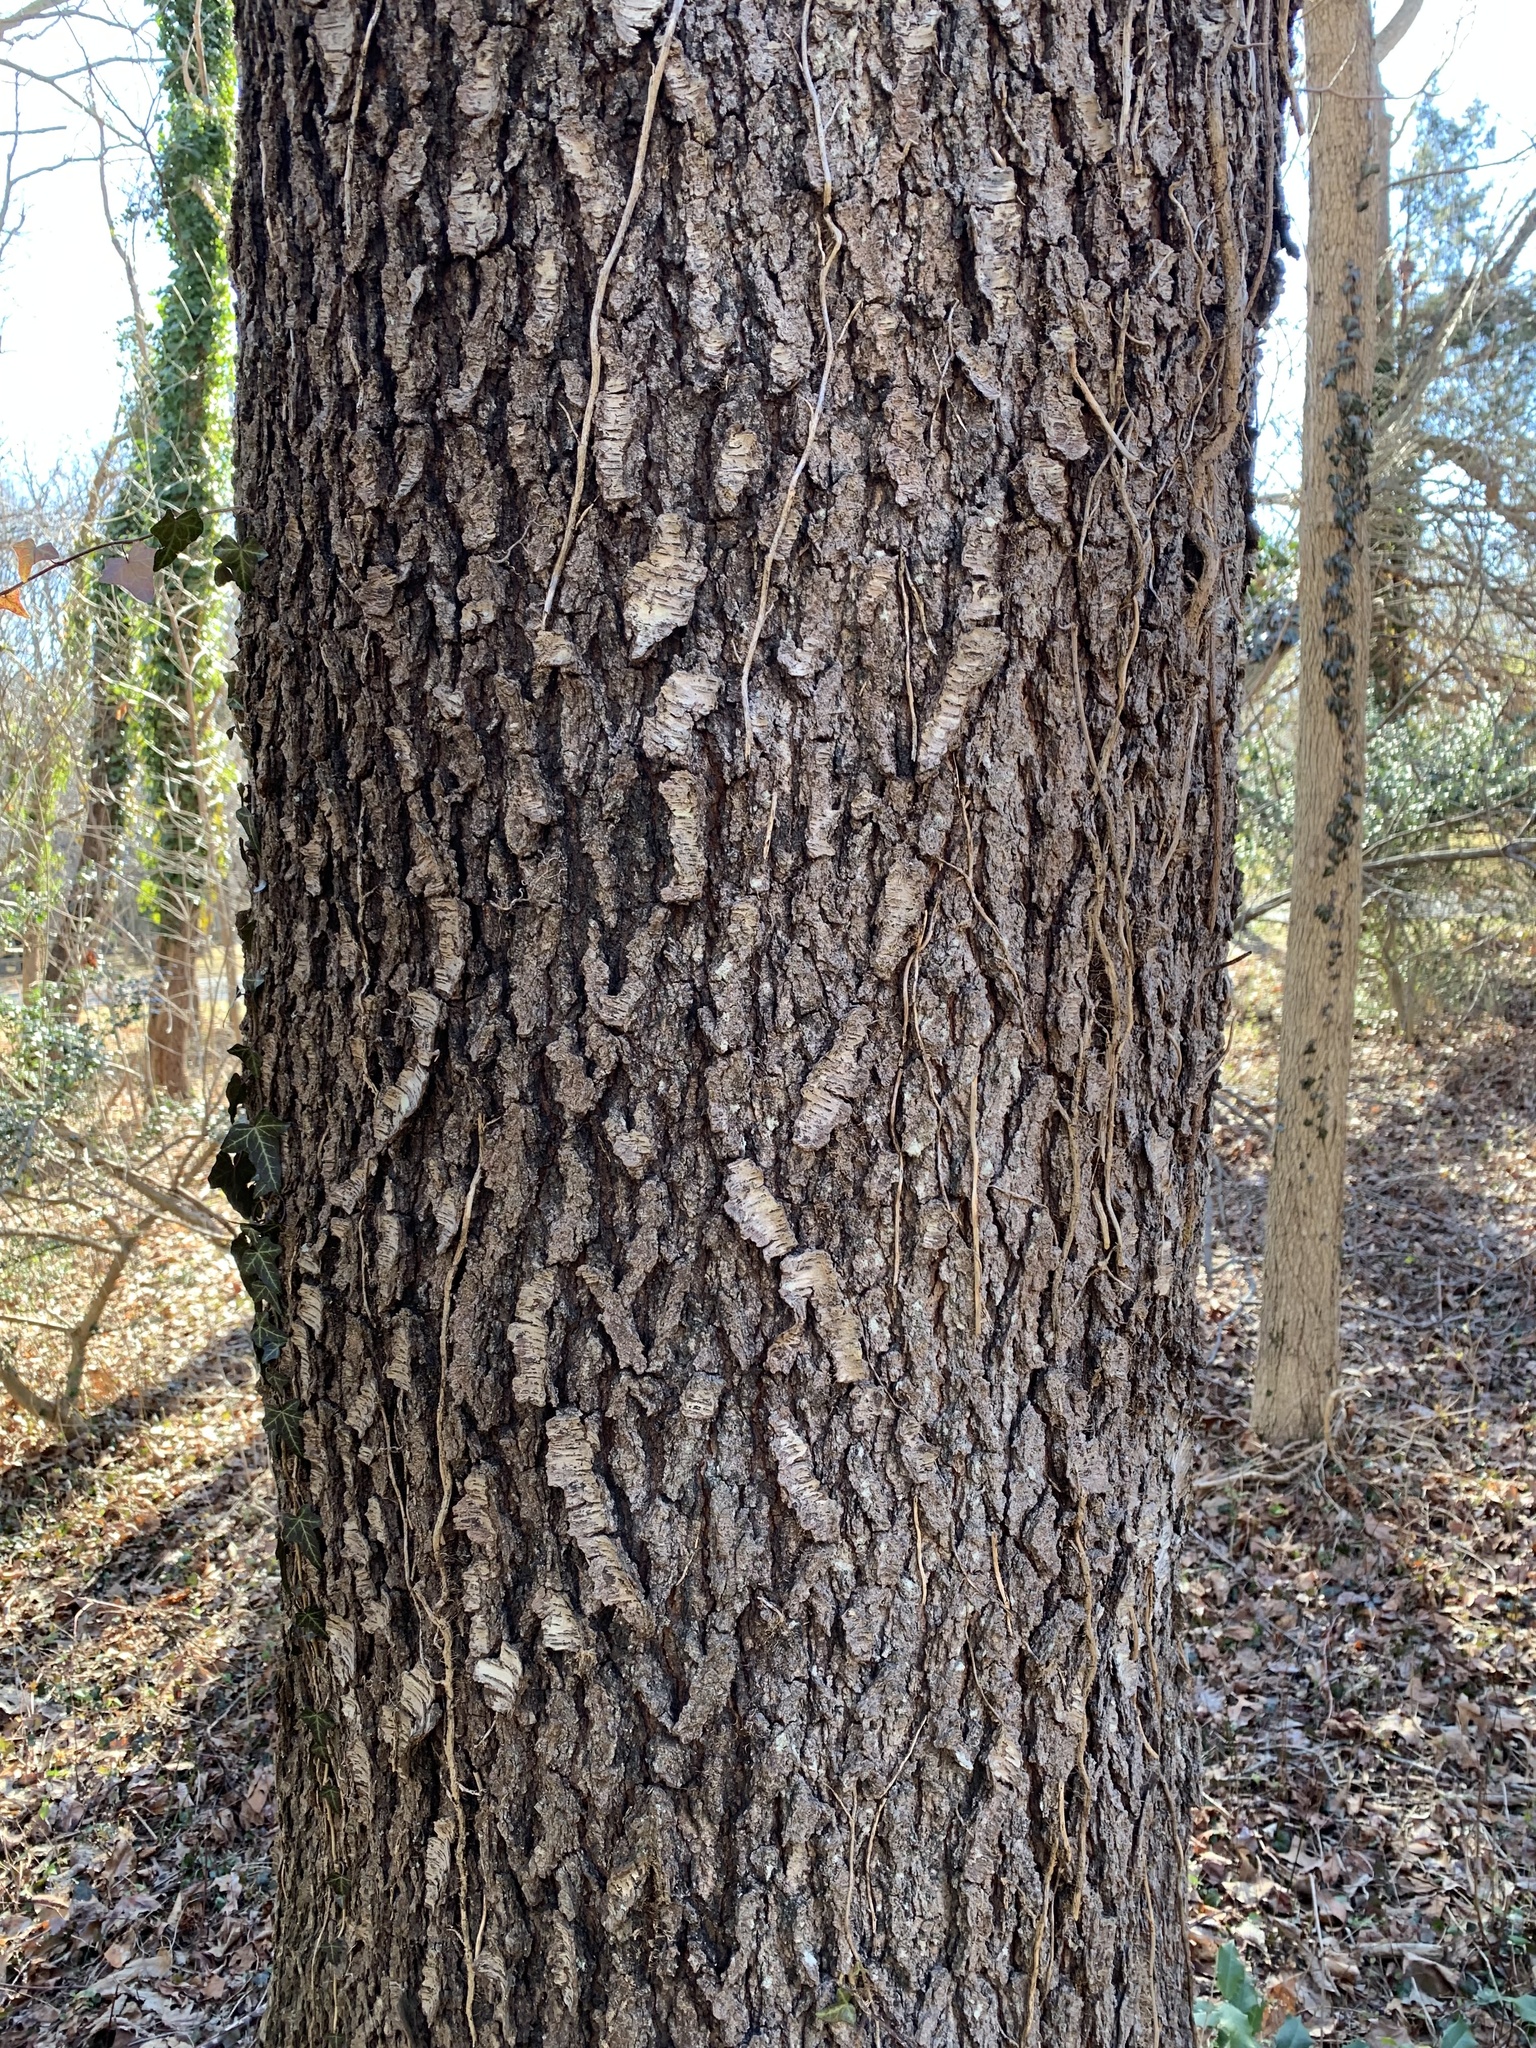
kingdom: Plantae
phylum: Tracheophyta
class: Magnoliopsida
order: Rosales
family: Rosaceae
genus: Prunus
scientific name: Prunus serotina
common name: Black cherry
